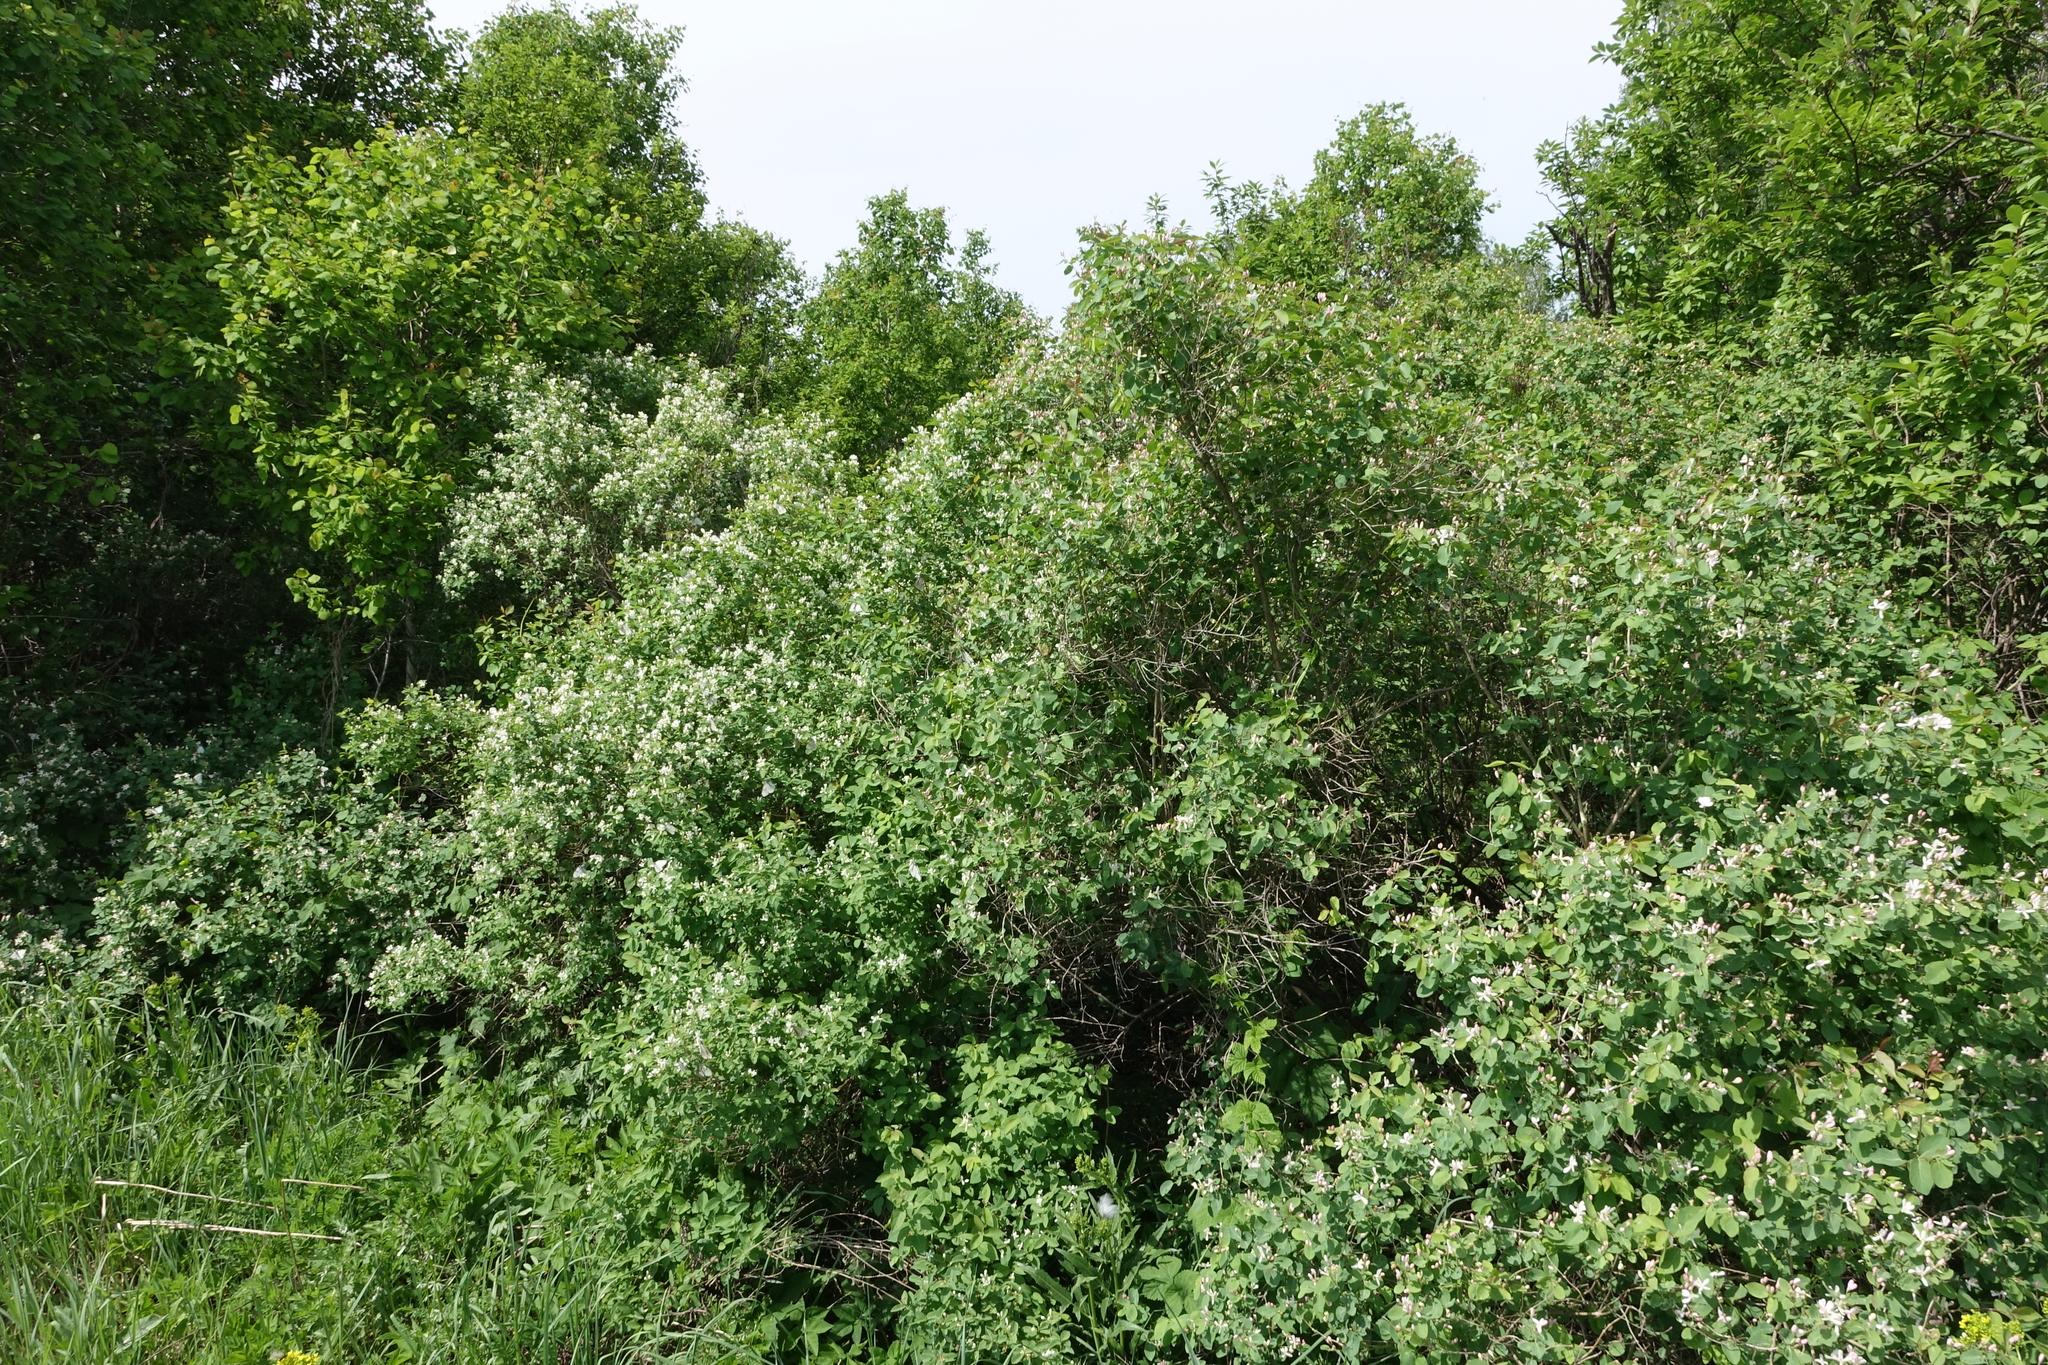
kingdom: Plantae
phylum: Tracheophyta
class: Magnoliopsida
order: Dipsacales
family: Caprifoliaceae
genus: Lonicera
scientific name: Lonicera tatarica
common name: Tatarian honeysuckle
